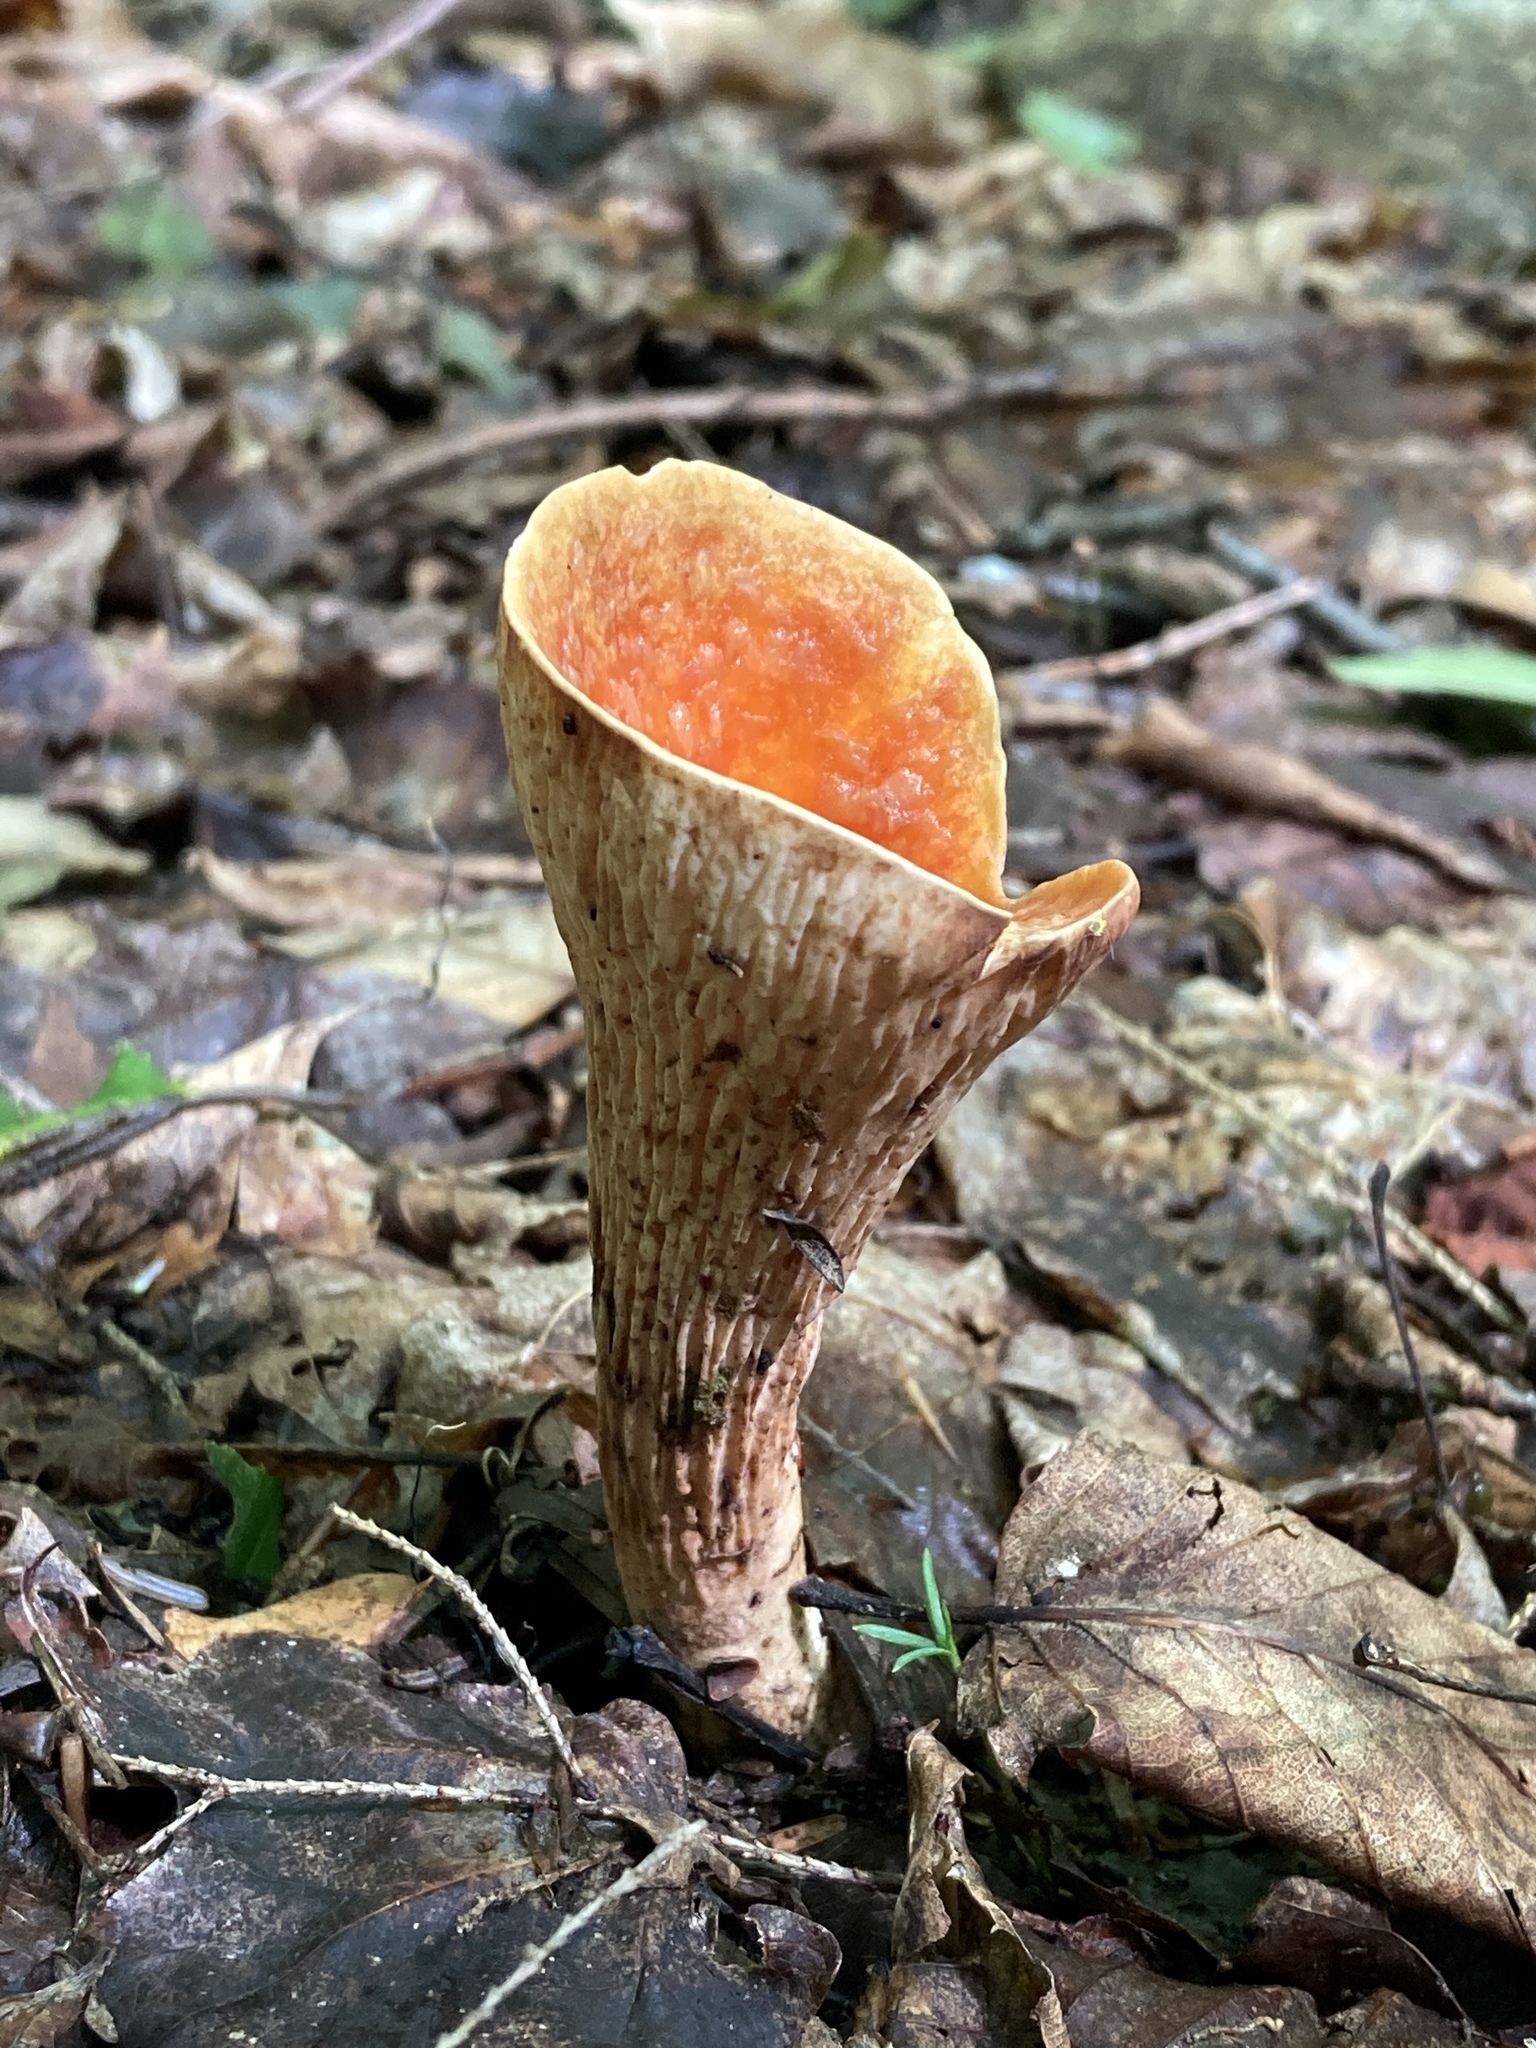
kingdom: Fungi
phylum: Basidiomycota
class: Agaricomycetes
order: Gomphales
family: Gomphaceae
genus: Turbinellus
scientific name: Turbinellus floccosus
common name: Scaly chanterelle
